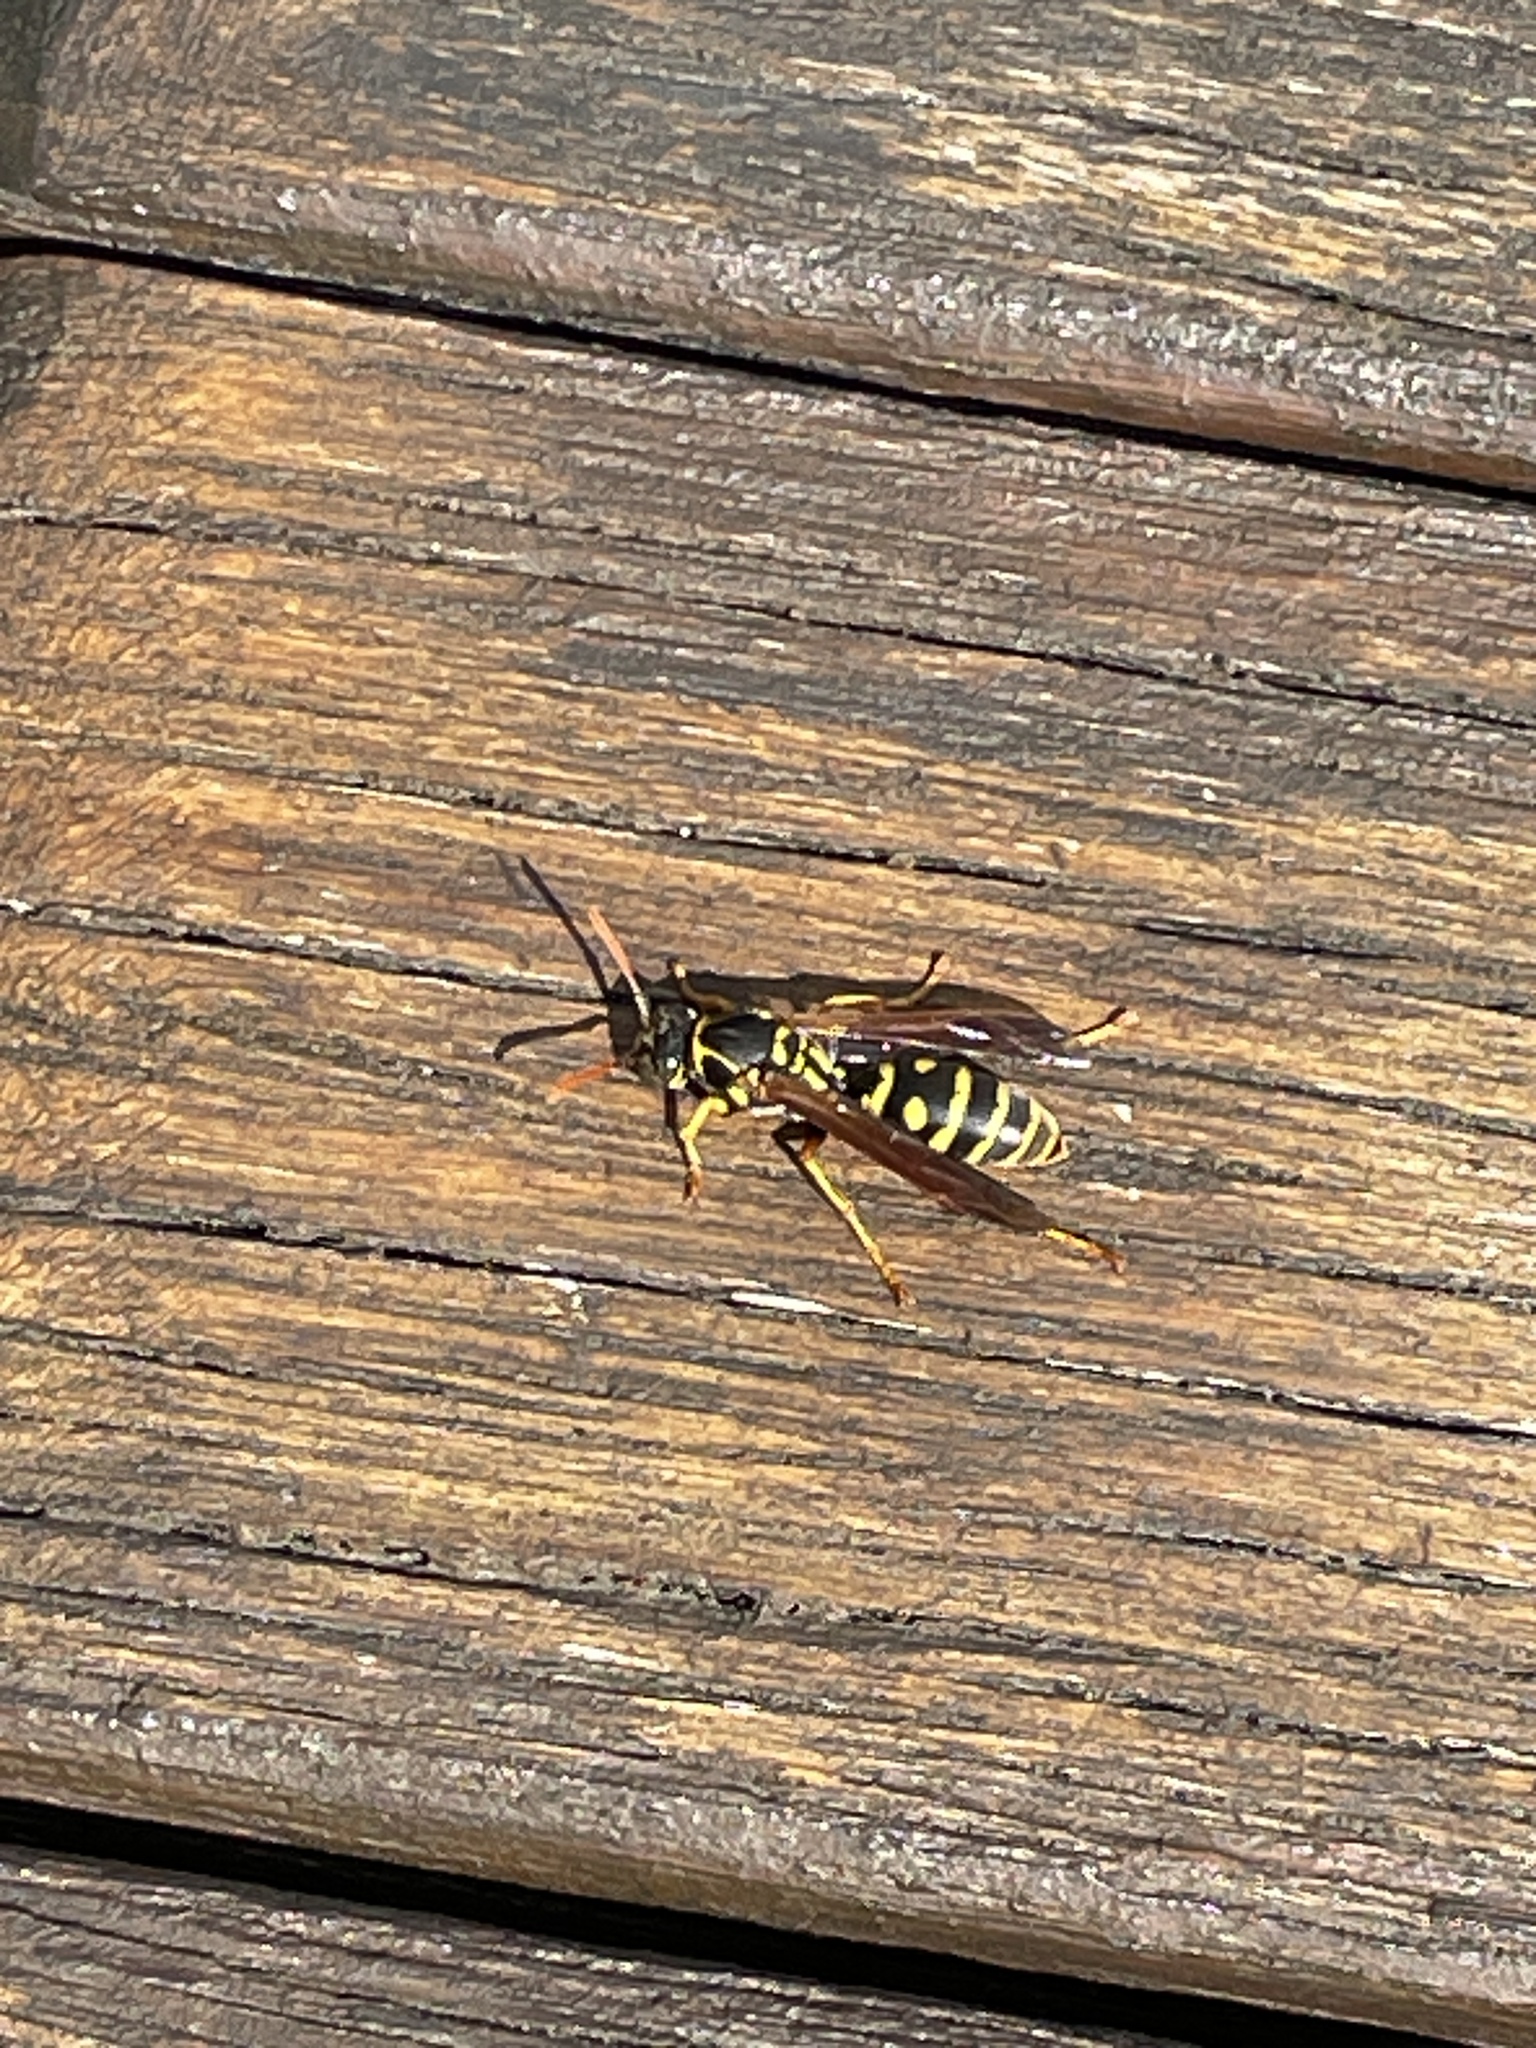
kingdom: Animalia
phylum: Arthropoda
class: Insecta
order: Hymenoptera
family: Eumenidae
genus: Polistes
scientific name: Polistes chinensis
